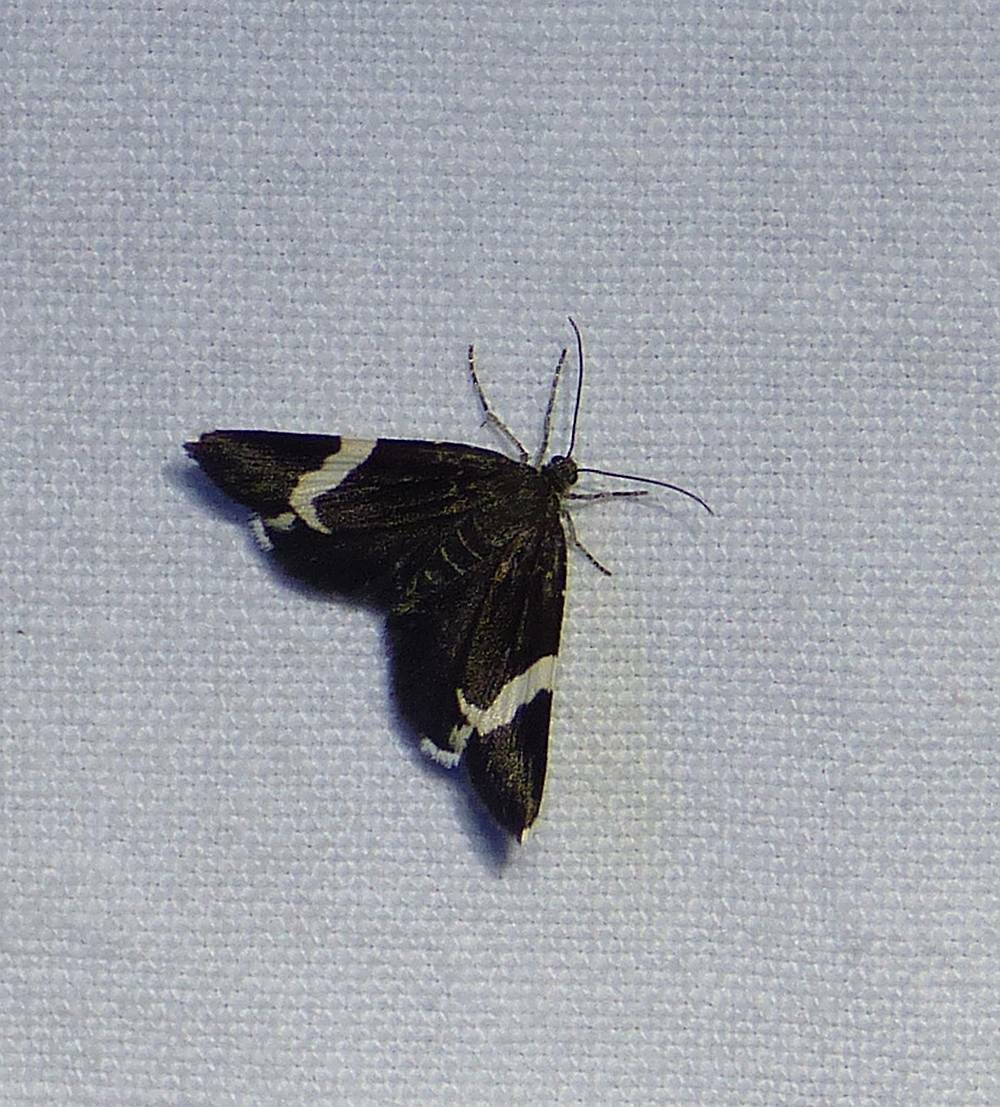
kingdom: Animalia
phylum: Arthropoda
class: Insecta
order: Lepidoptera
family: Geometridae
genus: Trichodezia
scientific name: Trichodezia albovittata
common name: White striped black
